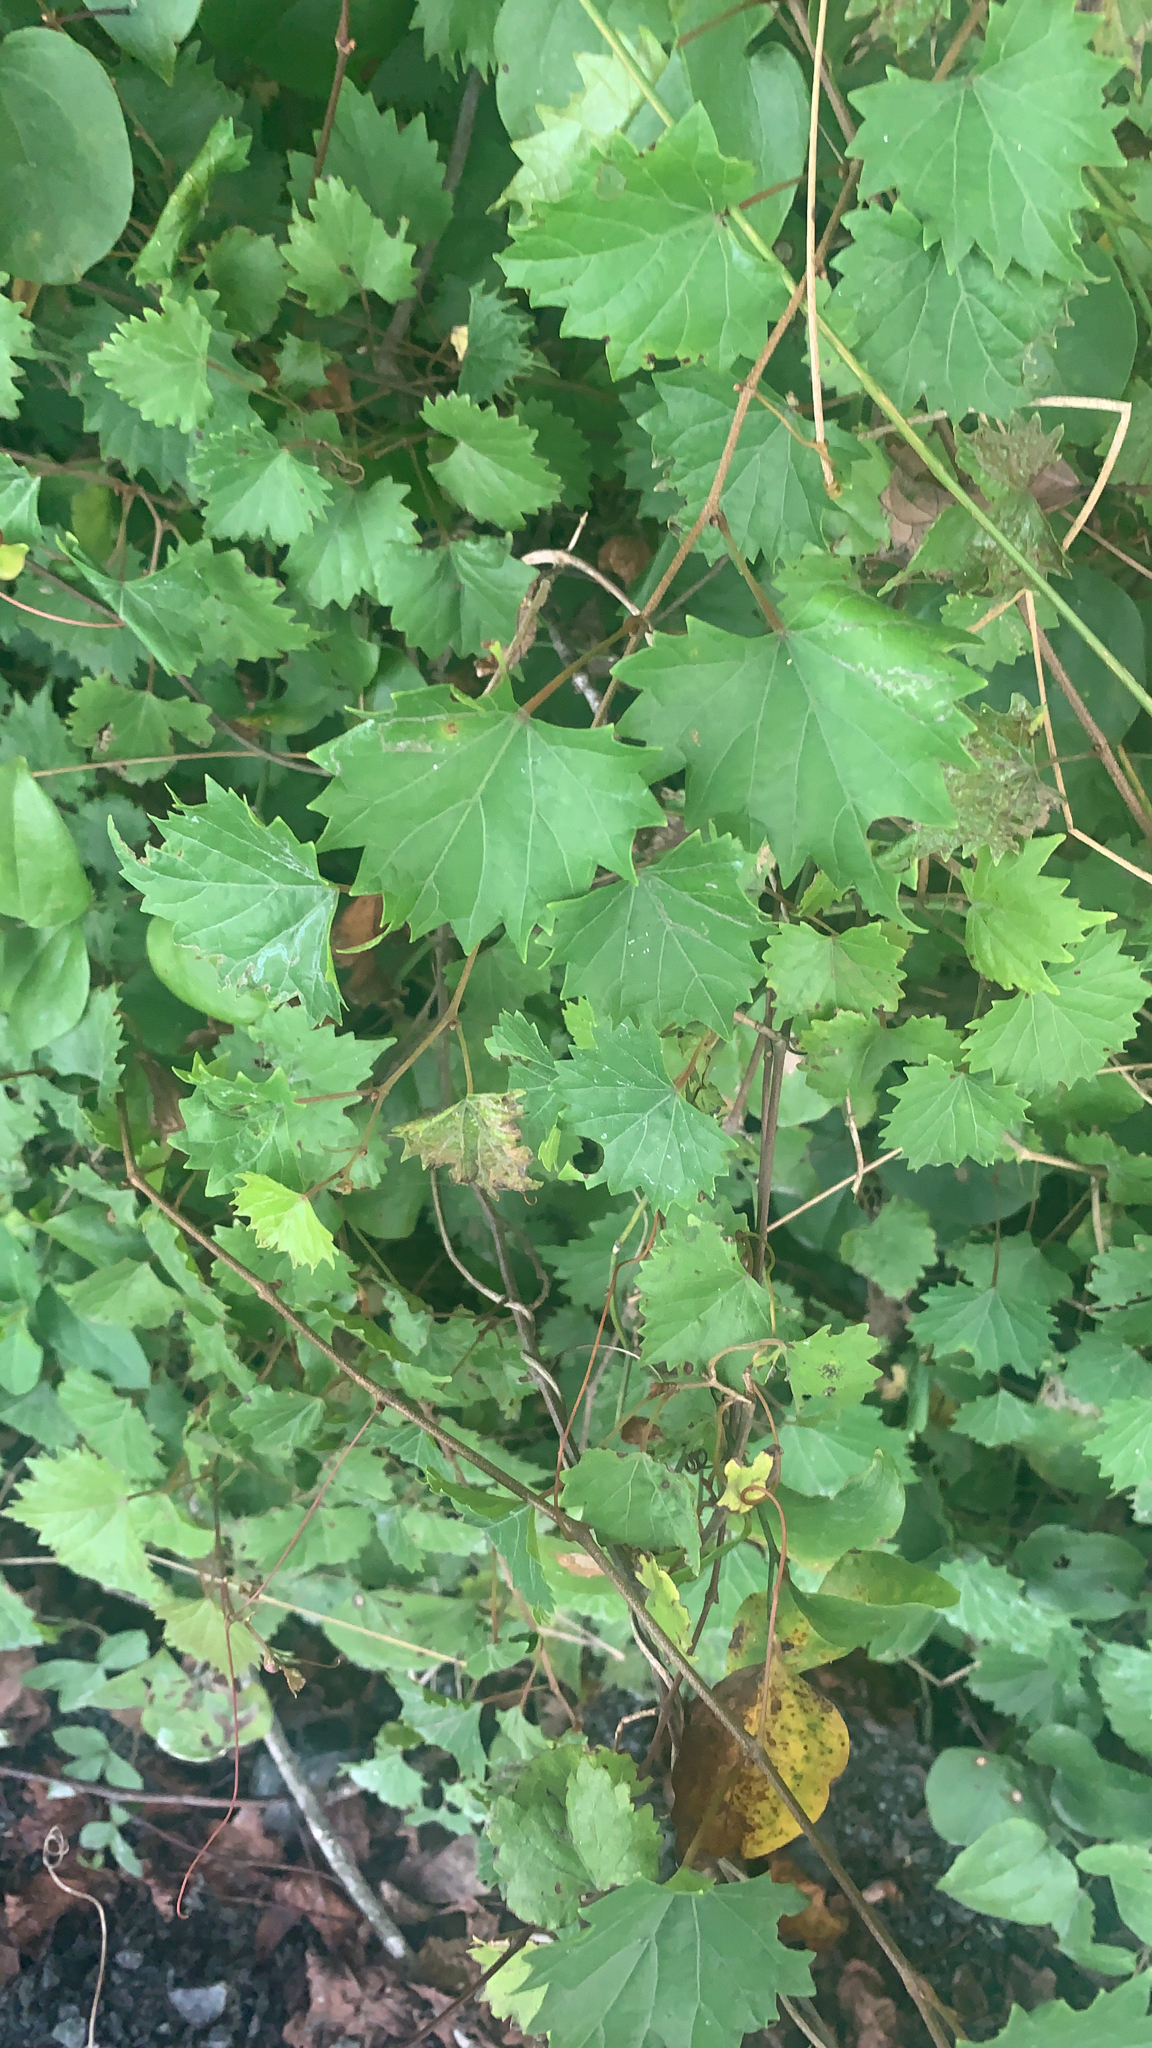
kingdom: Plantae
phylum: Tracheophyta
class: Magnoliopsida
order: Vitales
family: Vitaceae
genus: Vitis
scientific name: Vitis rotundifolia
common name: Muscadine grape
